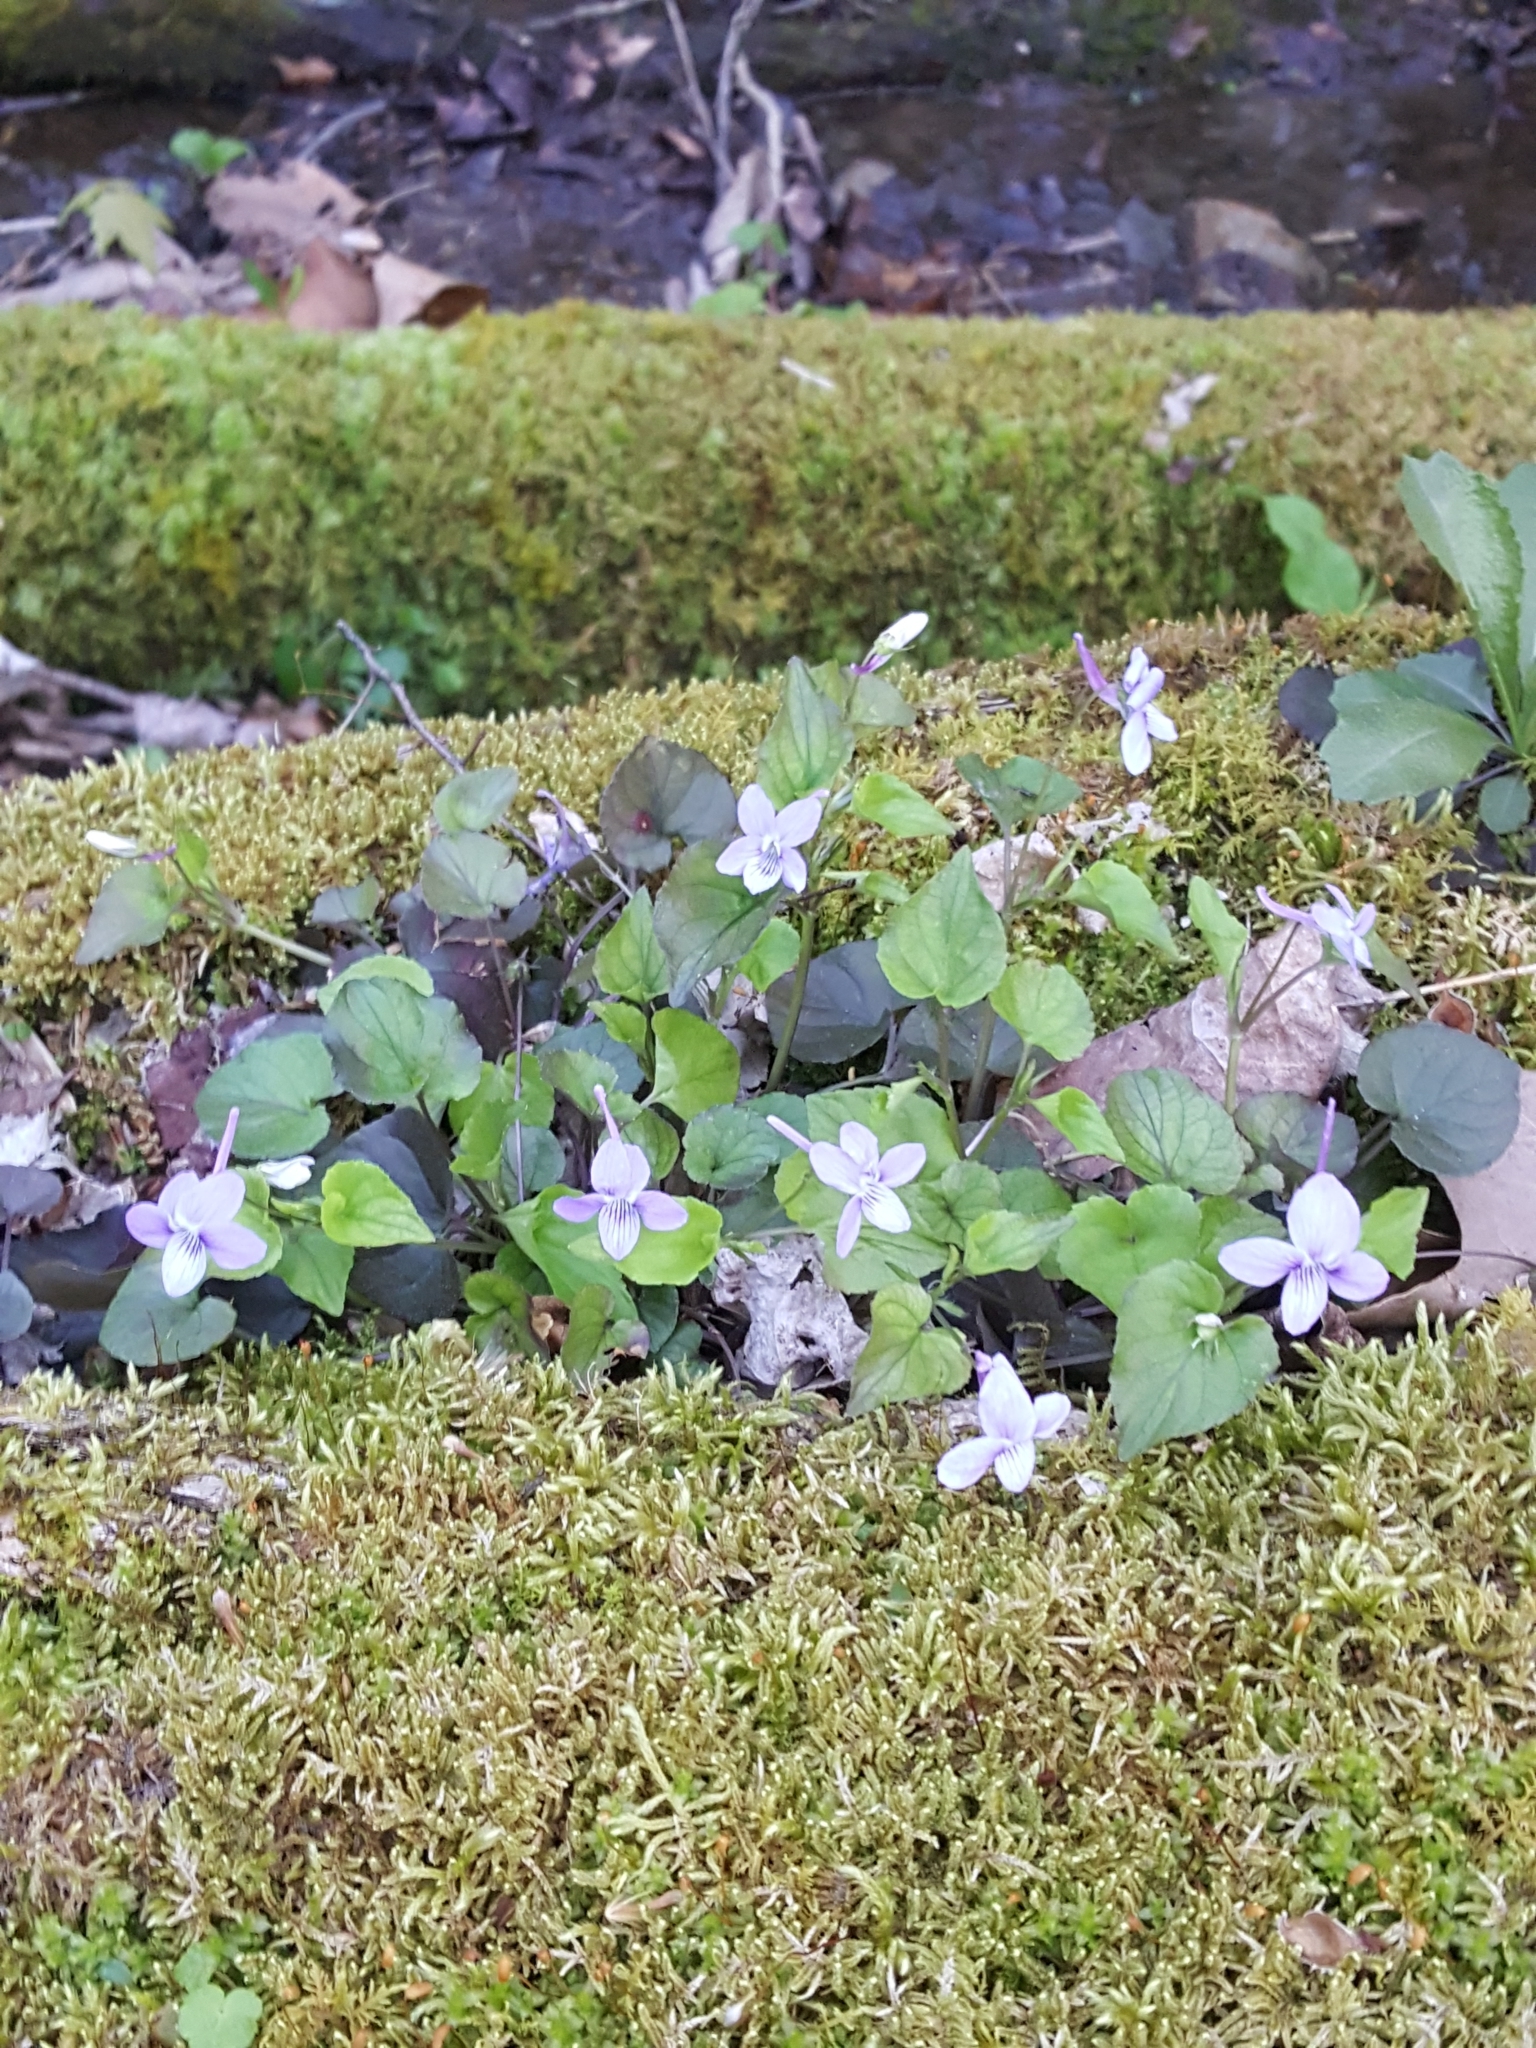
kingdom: Plantae
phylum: Tracheophyta
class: Magnoliopsida
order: Malpighiales
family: Violaceae
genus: Viola
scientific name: Viola rostrata
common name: Long-spur violet
